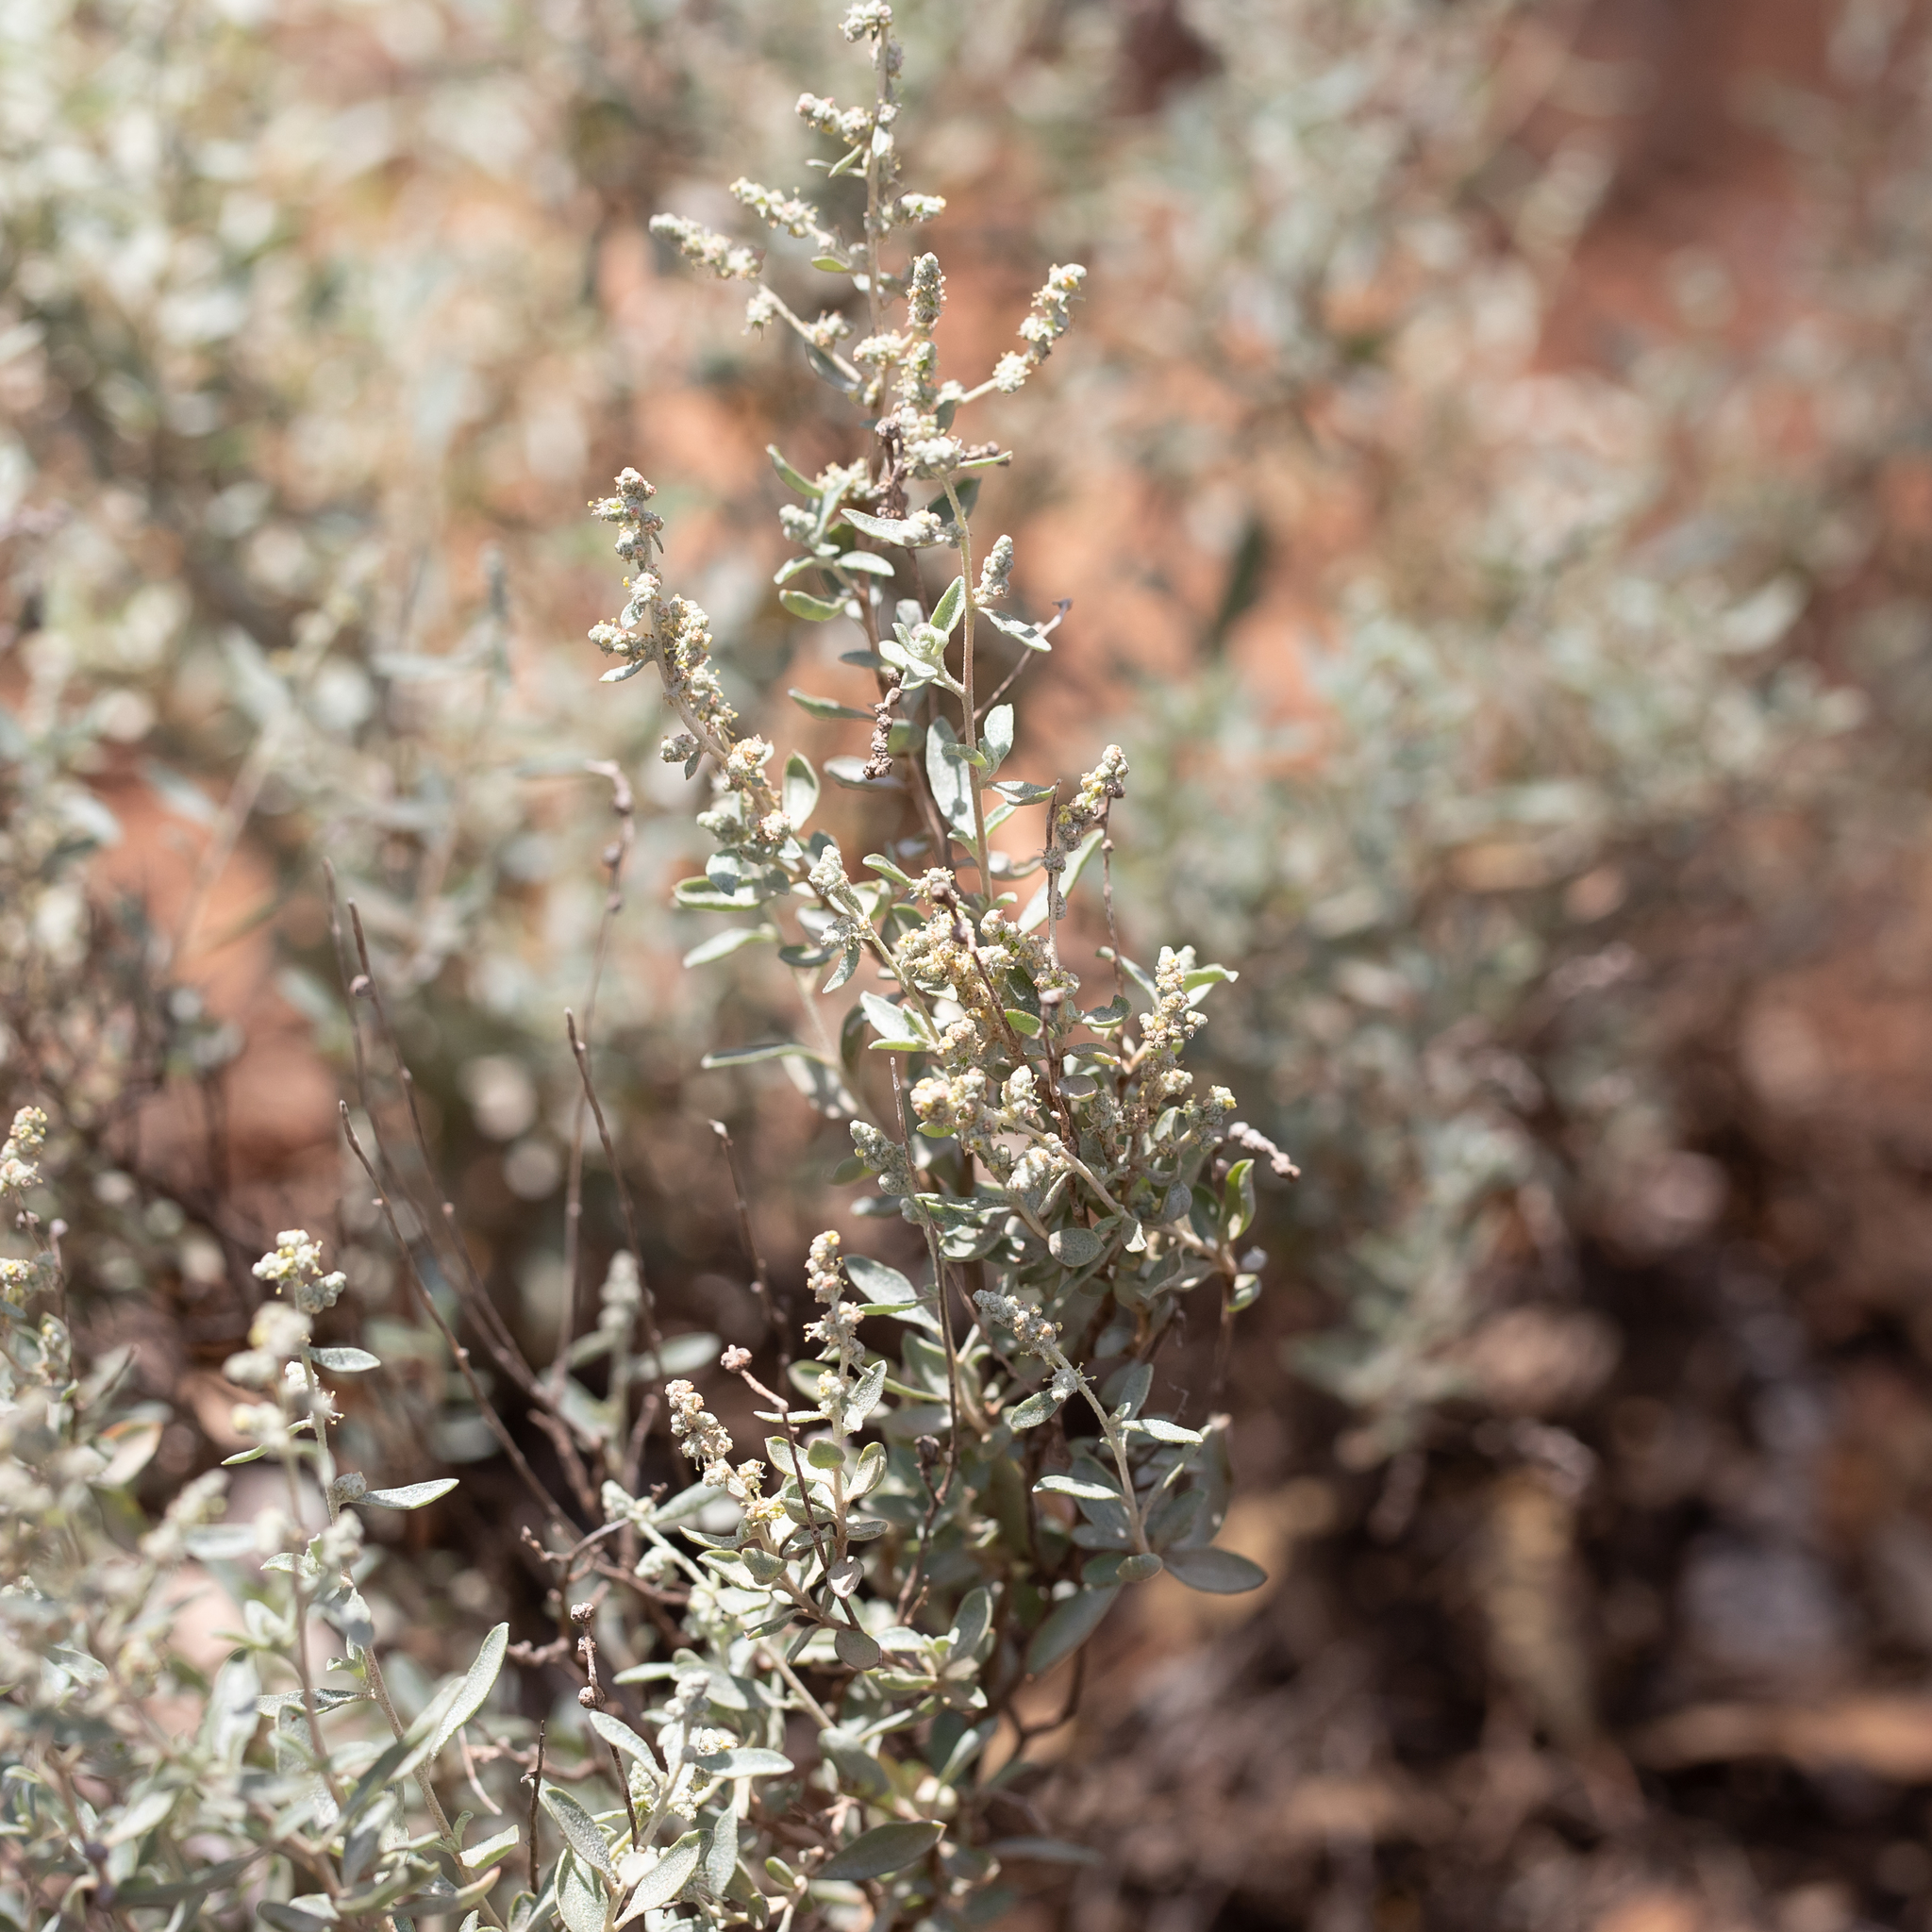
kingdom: Plantae
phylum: Tracheophyta
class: Magnoliopsida
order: Caryophyllales
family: Amaranthaceae
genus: Atriplex
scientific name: Atriplex stipitata
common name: Mallee saltbush
